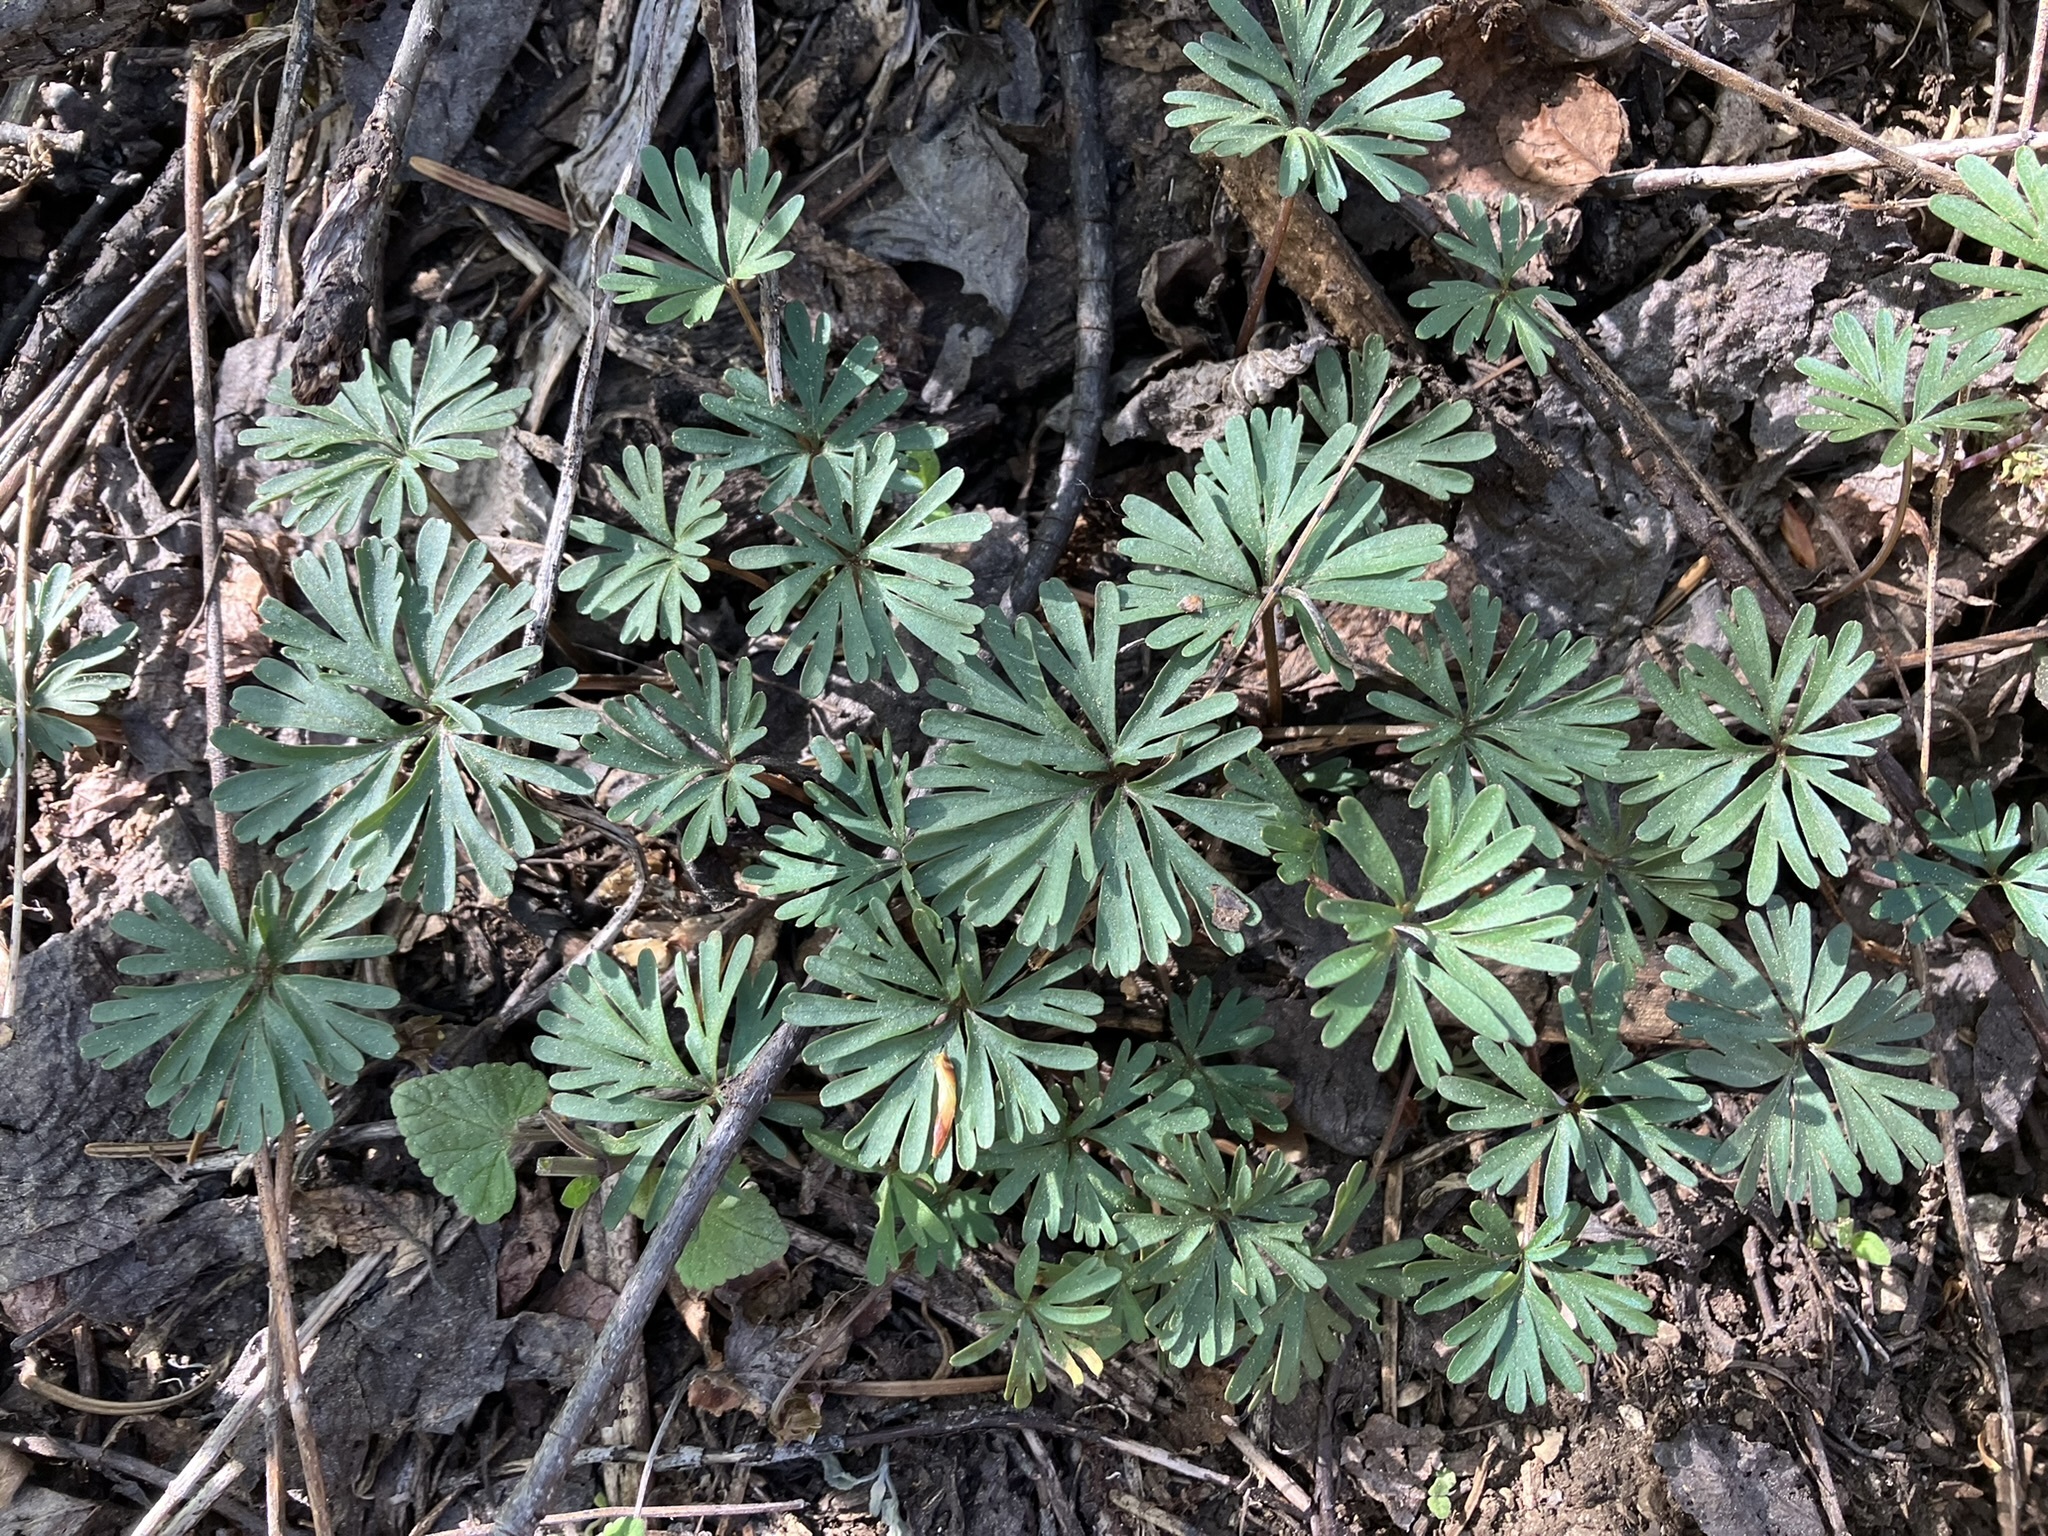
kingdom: Plantae
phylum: Tracheophyta
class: Magnoliopsida
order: Malpighiales
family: Violaceae
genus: Viola
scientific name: Viola sheltonii
